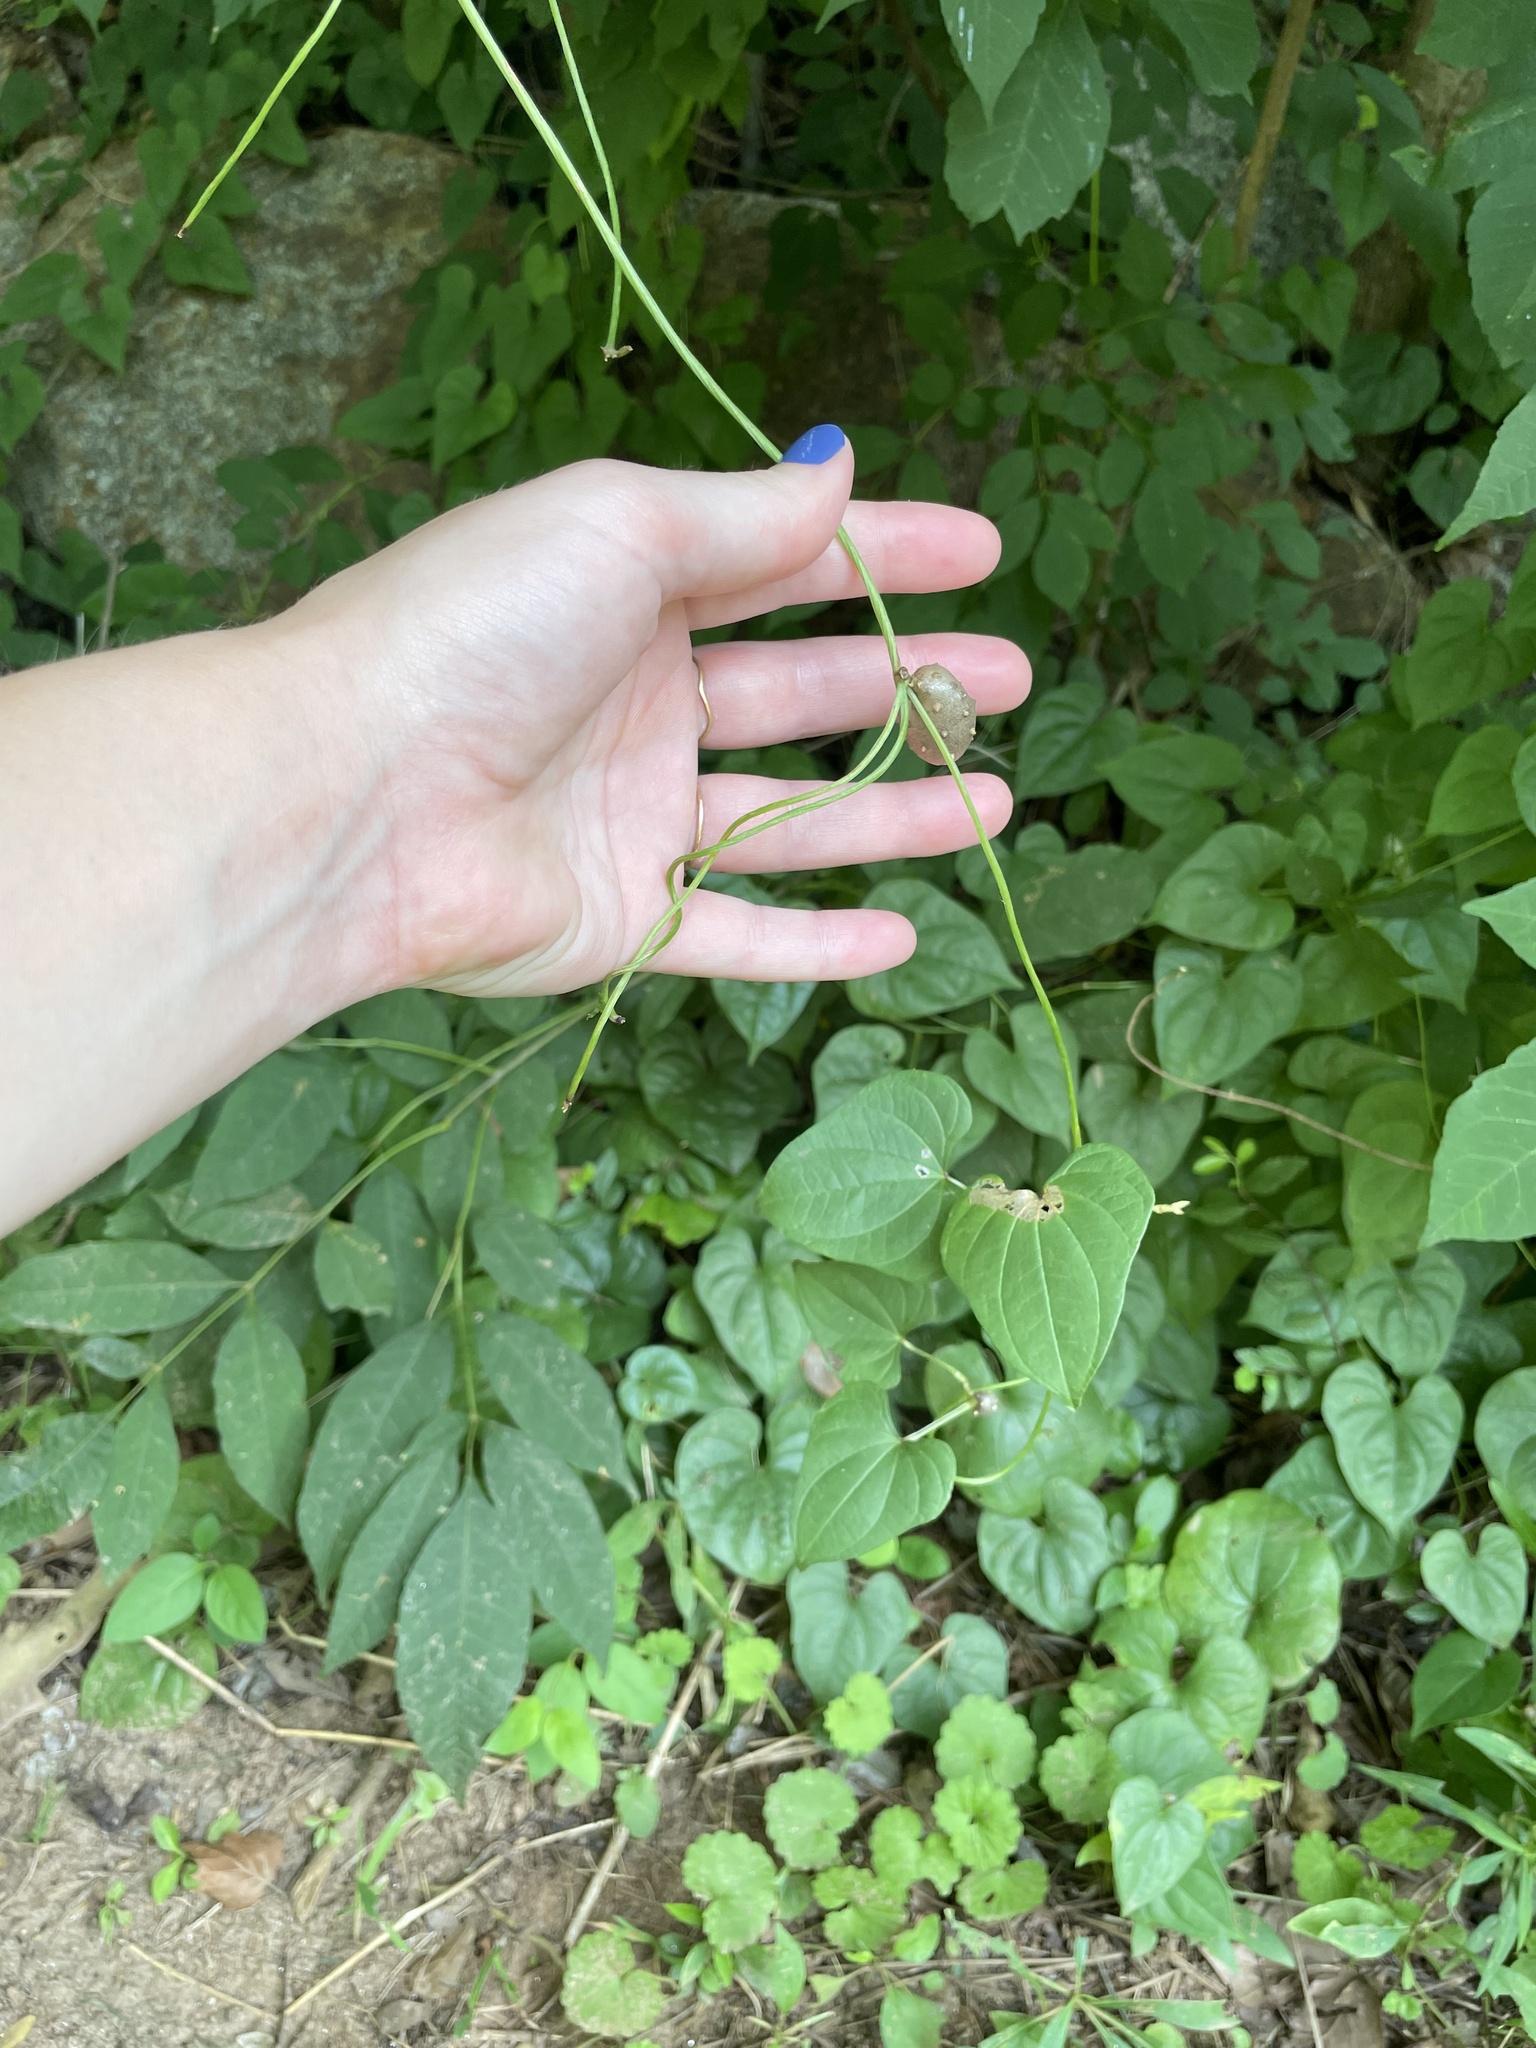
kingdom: Plantae
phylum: Tracheophyta
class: Liliopsida
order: Dioscoreales
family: Dioscoreaceae
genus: Dioscorea
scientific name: Dioscorea polystachya
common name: Chinese yam
